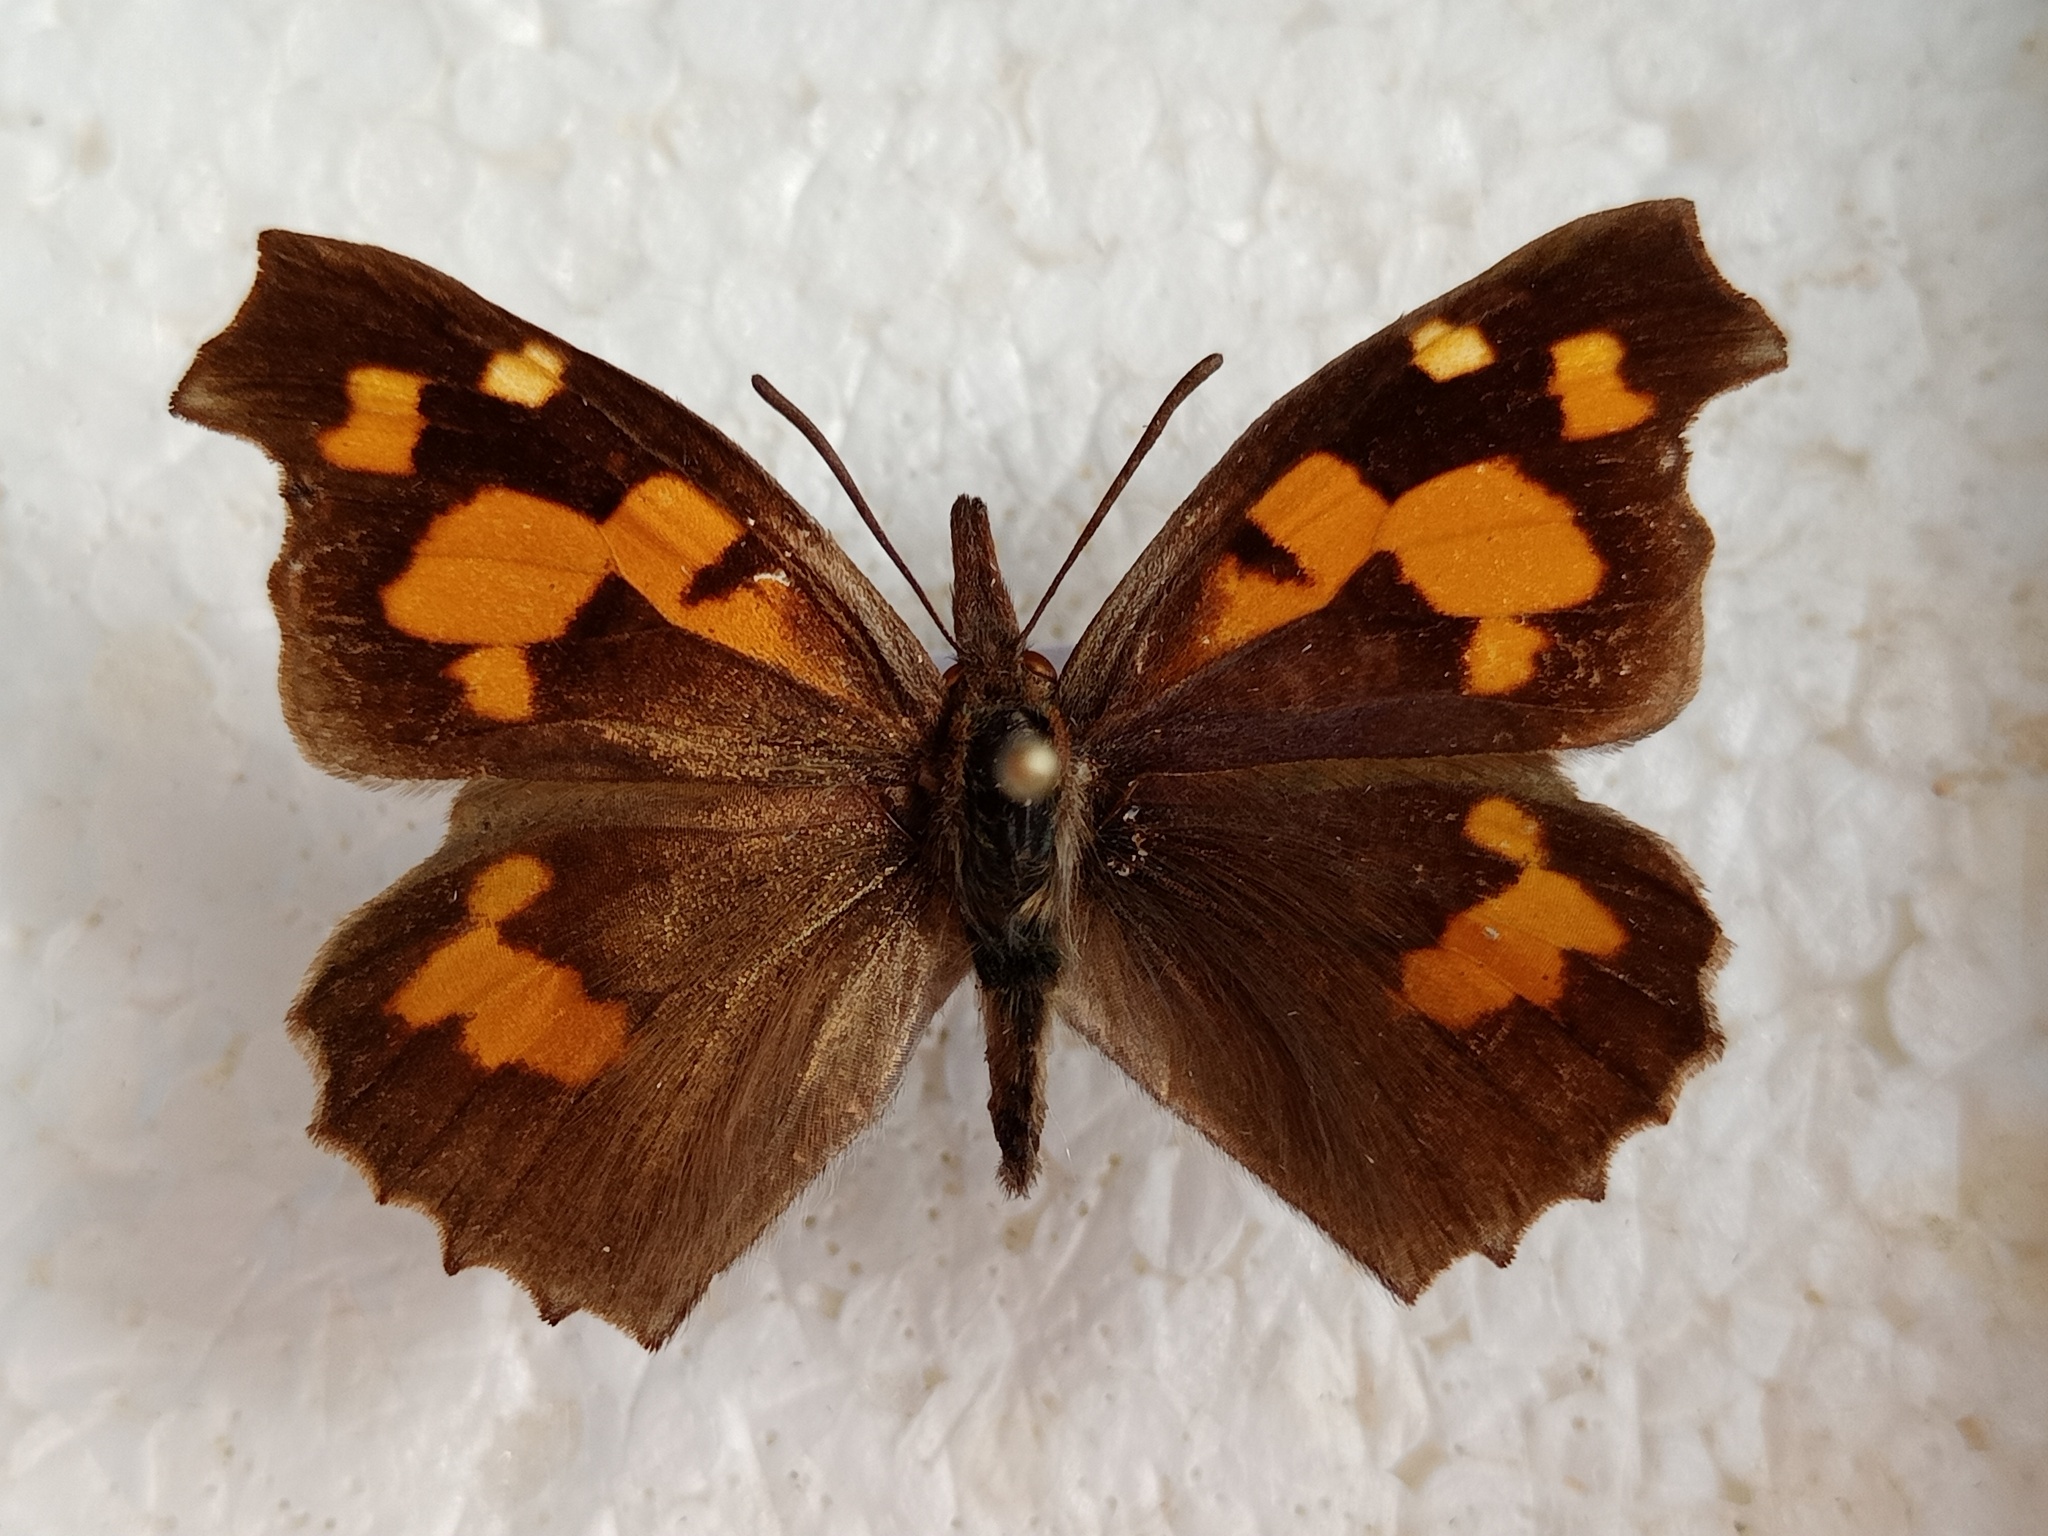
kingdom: Animalia
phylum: Arthropoda
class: Insecta
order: Lepidoptera
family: Nymphalidae
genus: Libythea
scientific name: Libythea celtis
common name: Nettle-tree butterfly
